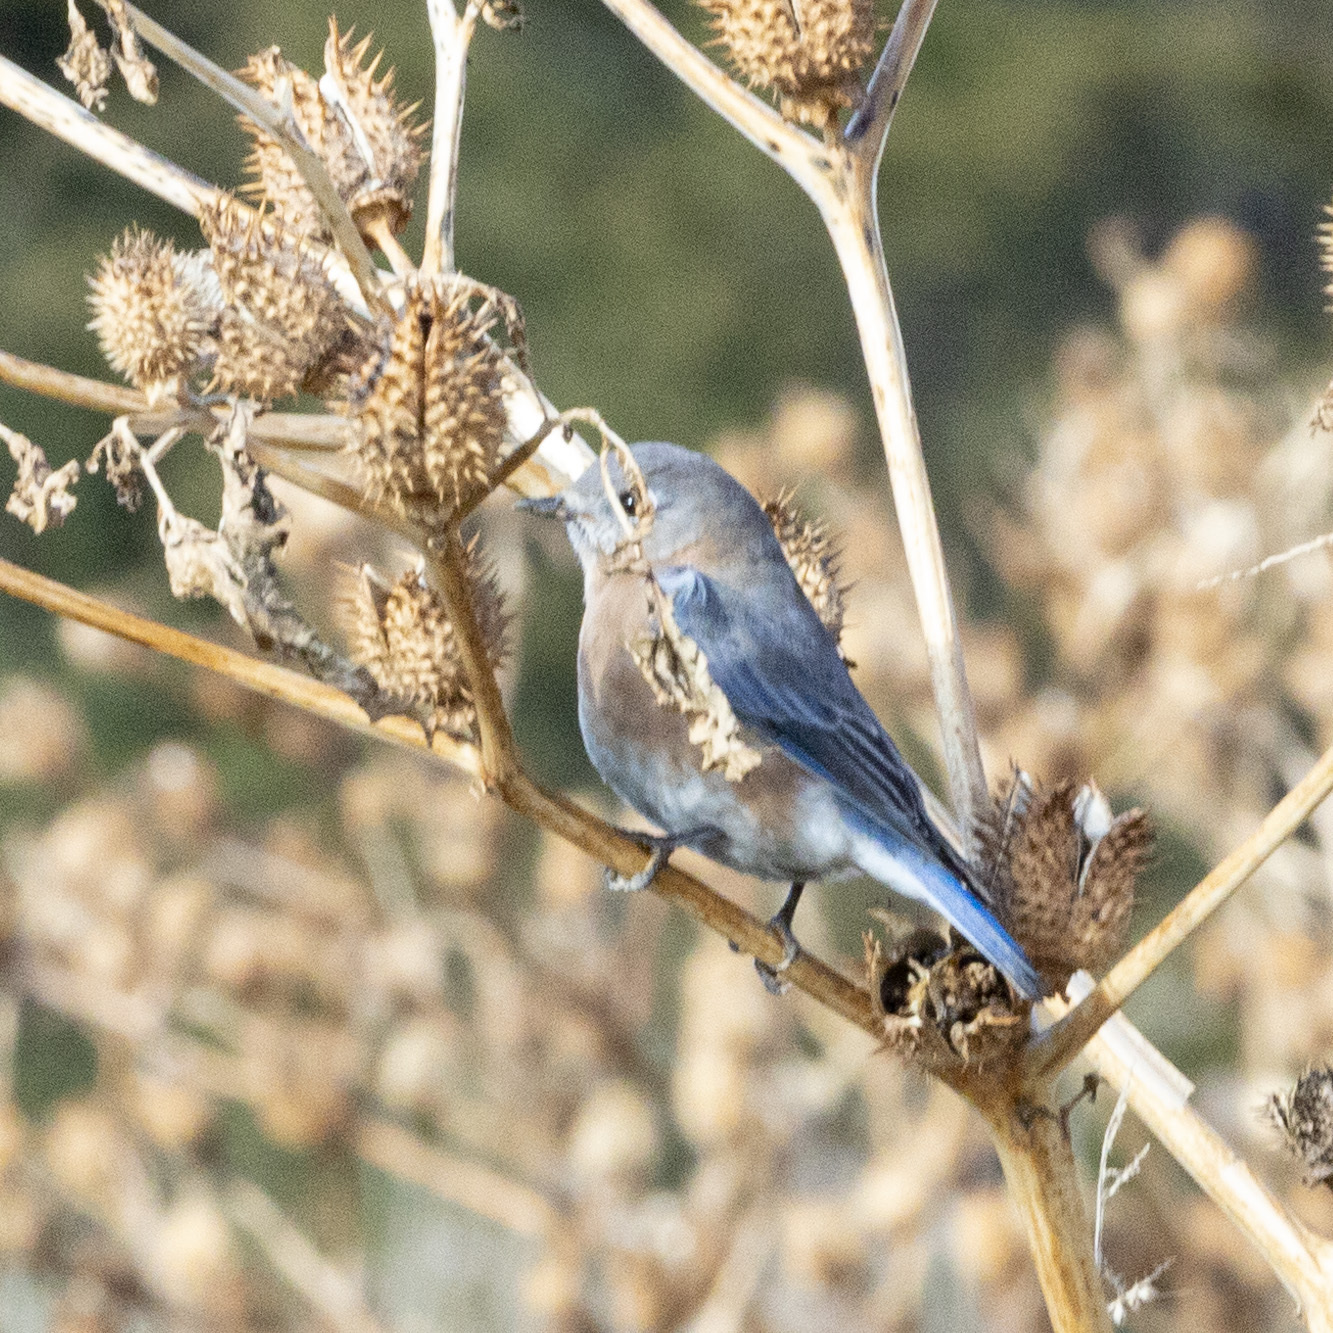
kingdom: Animalia
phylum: Chordata
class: Aves
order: Passeriformes
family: Turdidae
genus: Sialia
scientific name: Sialia sialis
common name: Eastern bluebird
